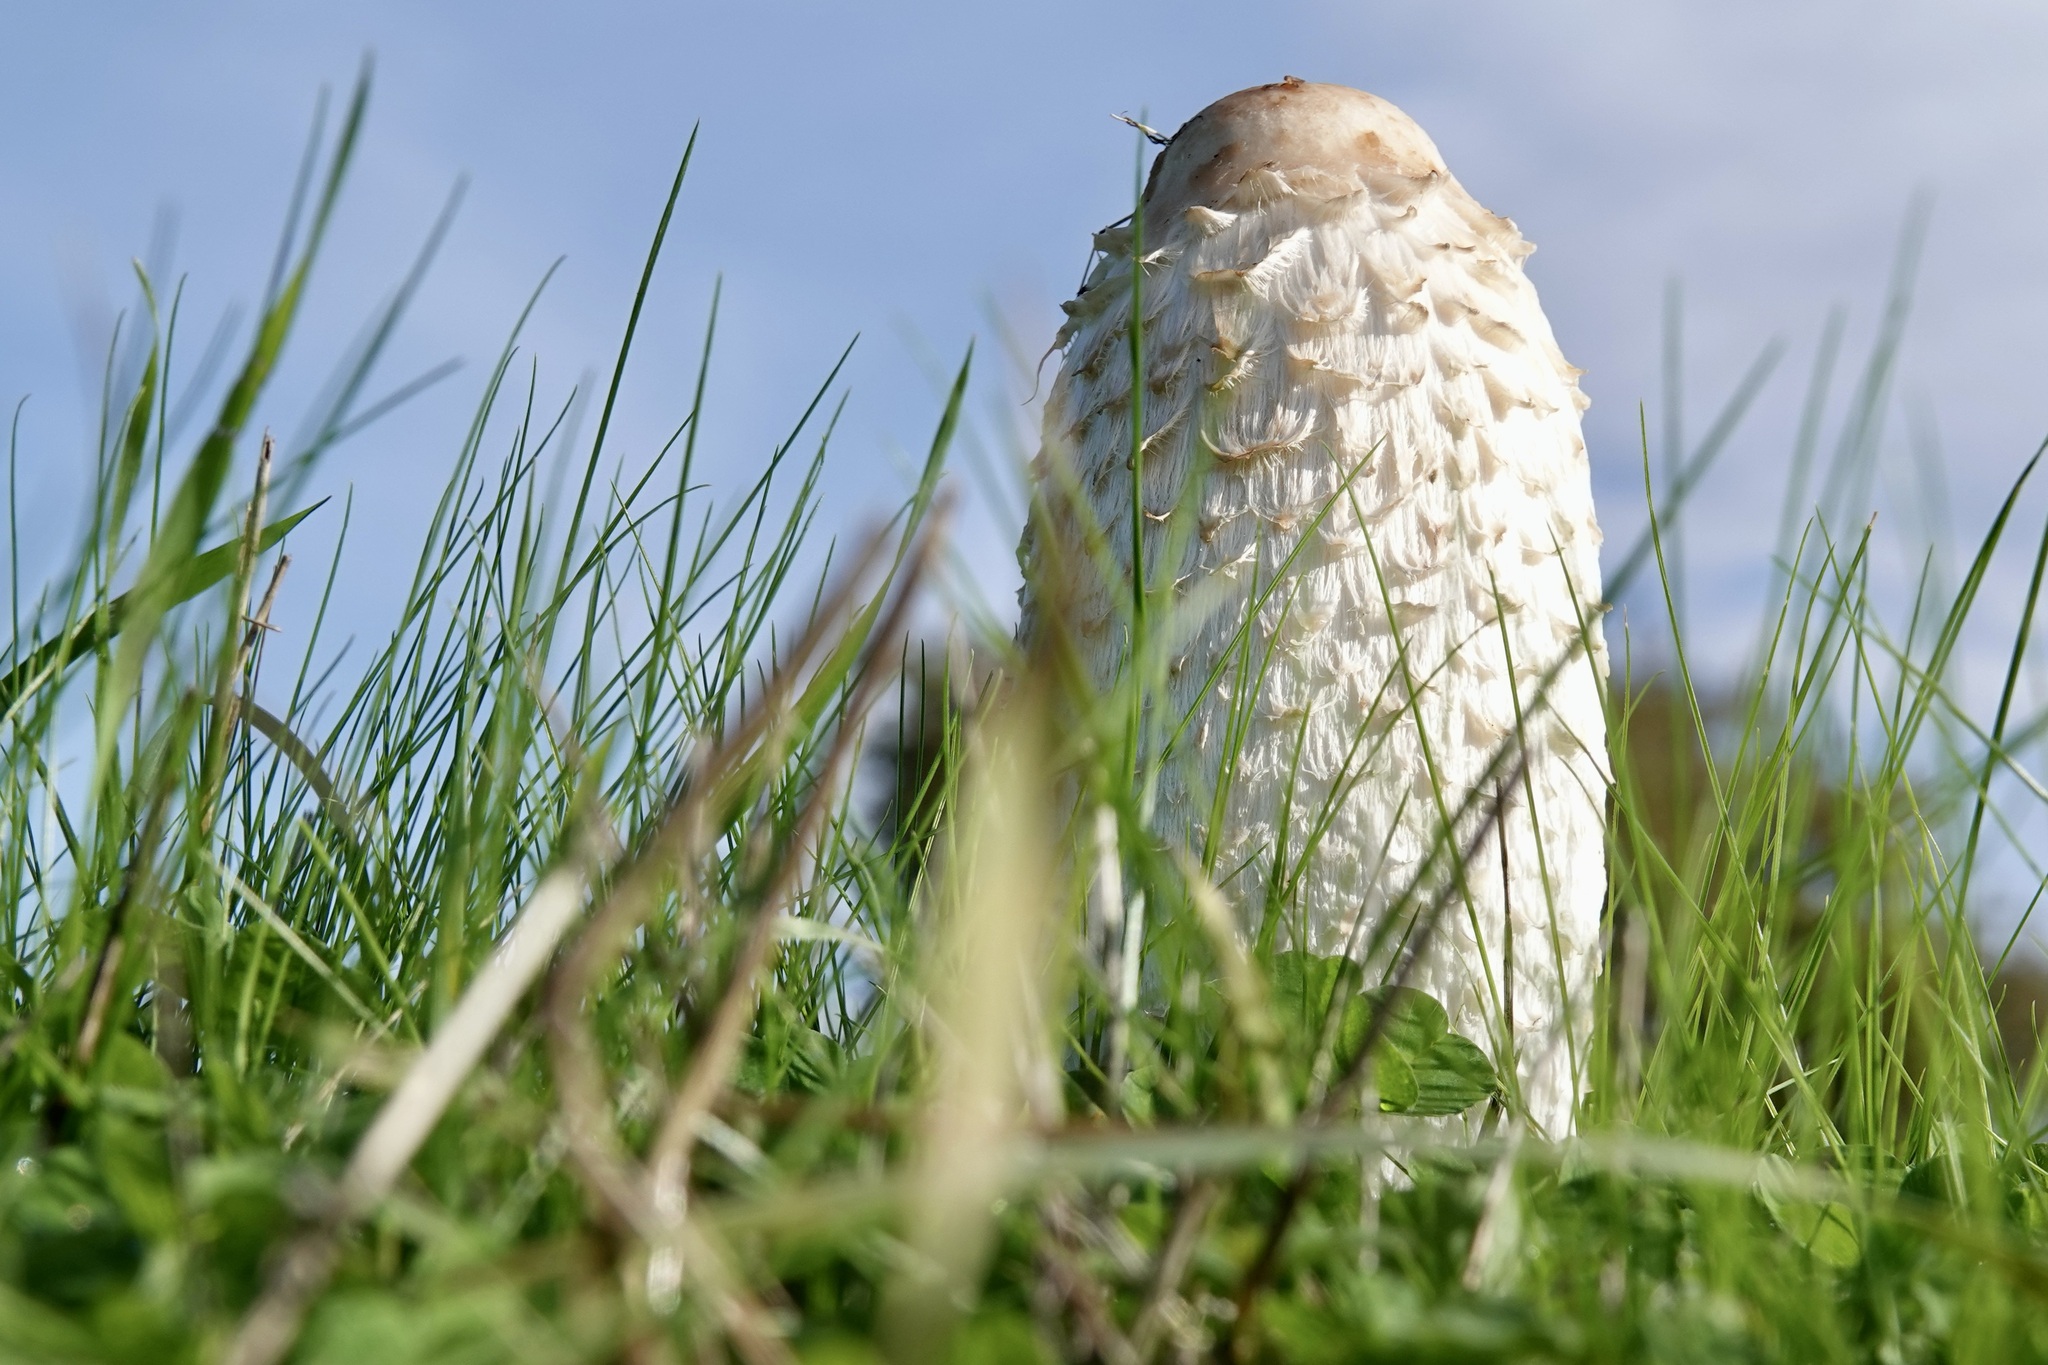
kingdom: Fungi
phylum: Basidiomycota
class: Agaricomycetes
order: Agaricales
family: Agaricaceae
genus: Coprinus
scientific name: Coprinus comatus
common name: Lawyer's wig
